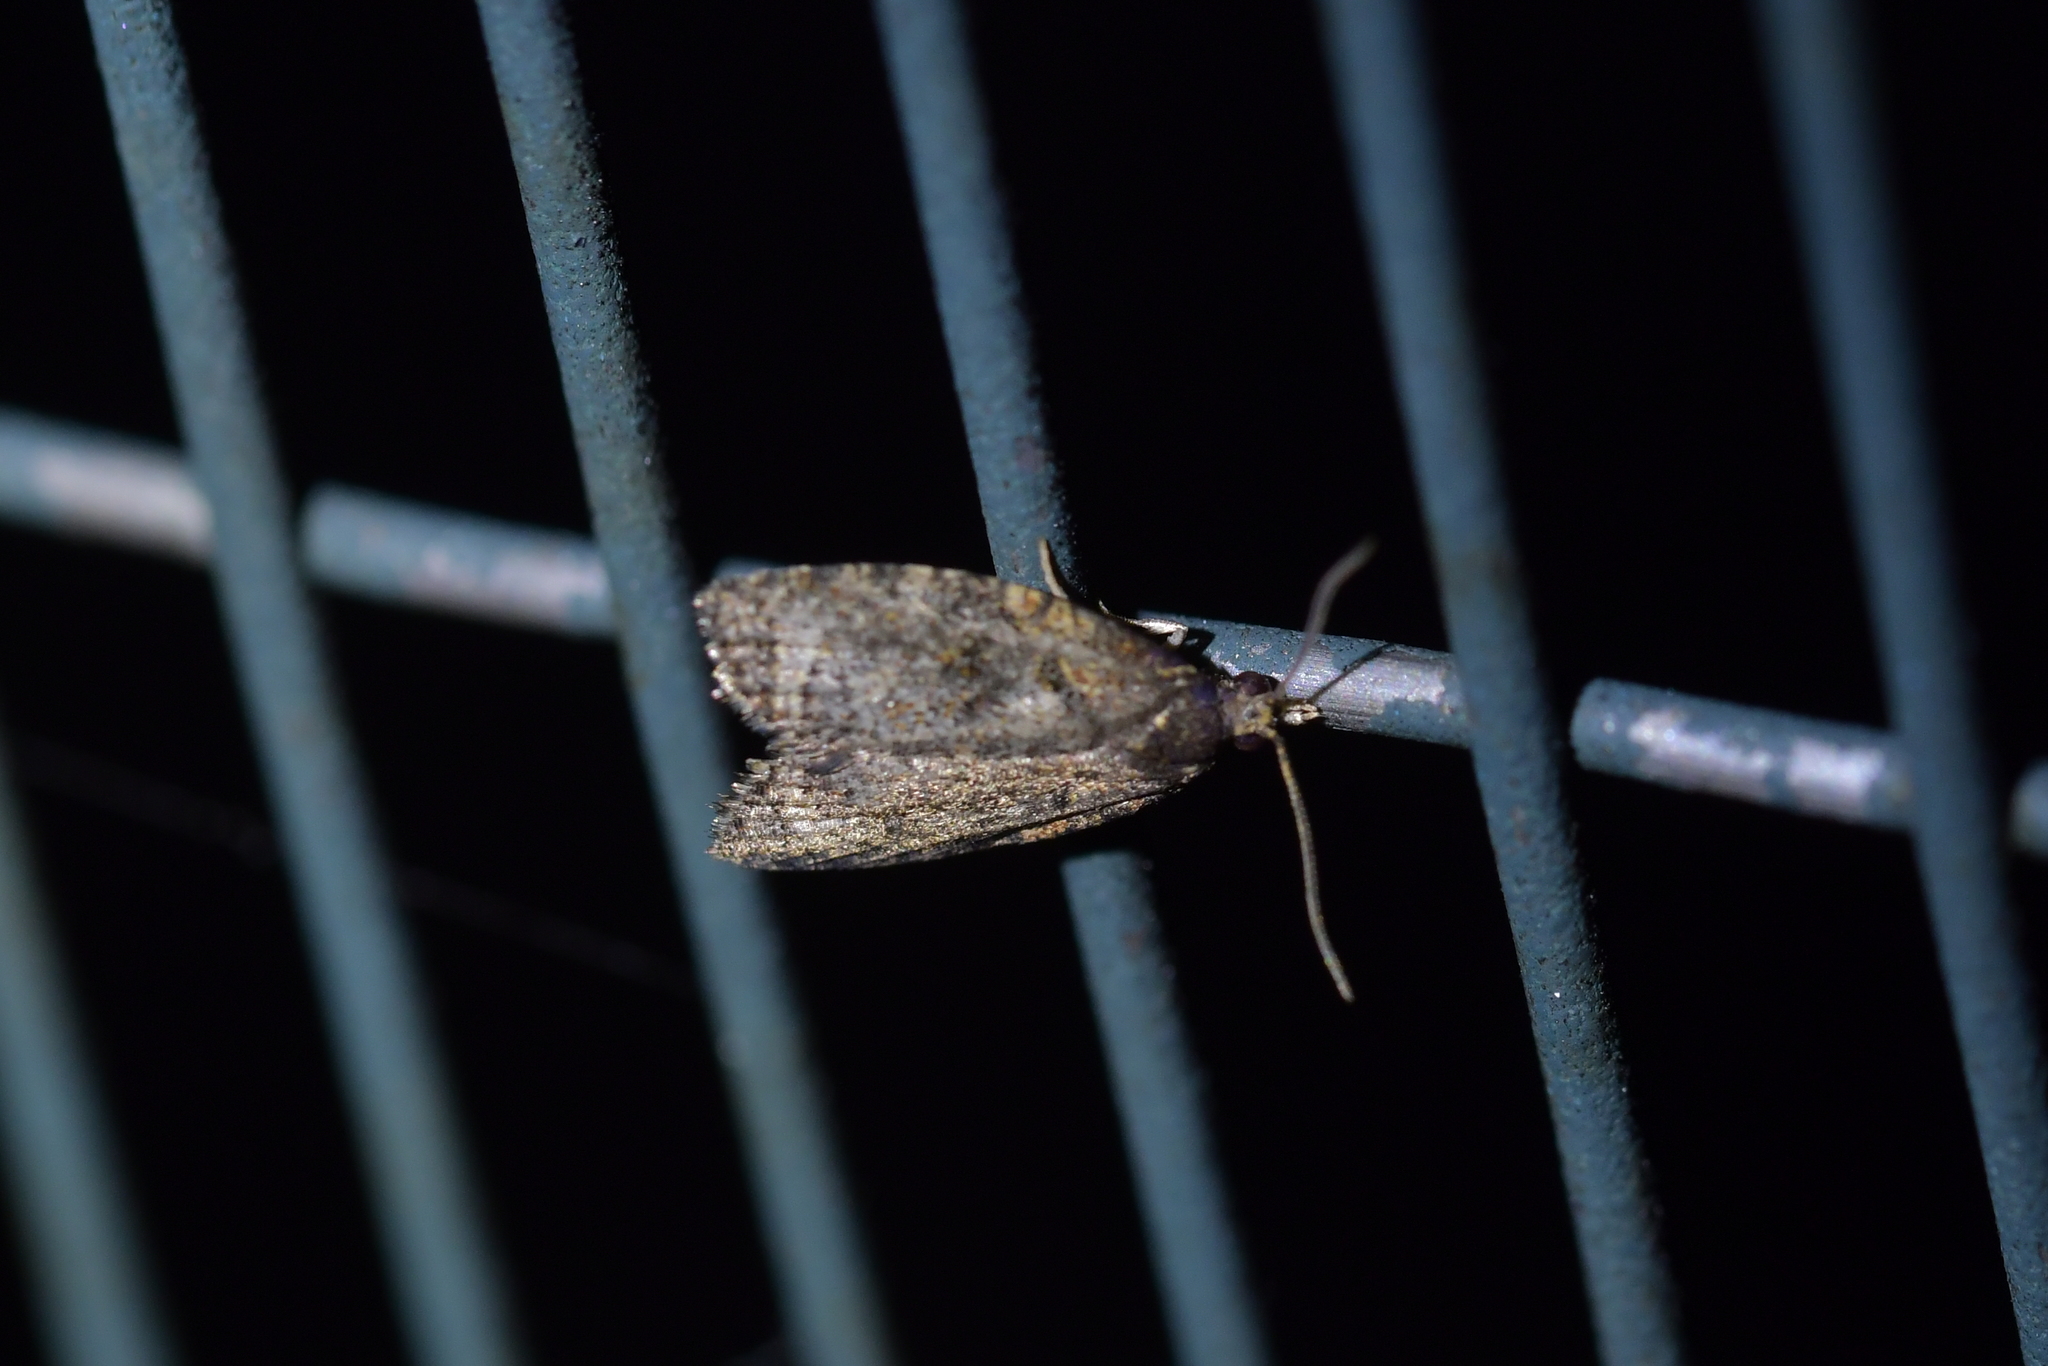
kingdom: Animalia
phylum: Arthropoda
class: Insecta
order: Lepidoptera
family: Tortricidae
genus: Capua
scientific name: Capua intractana
